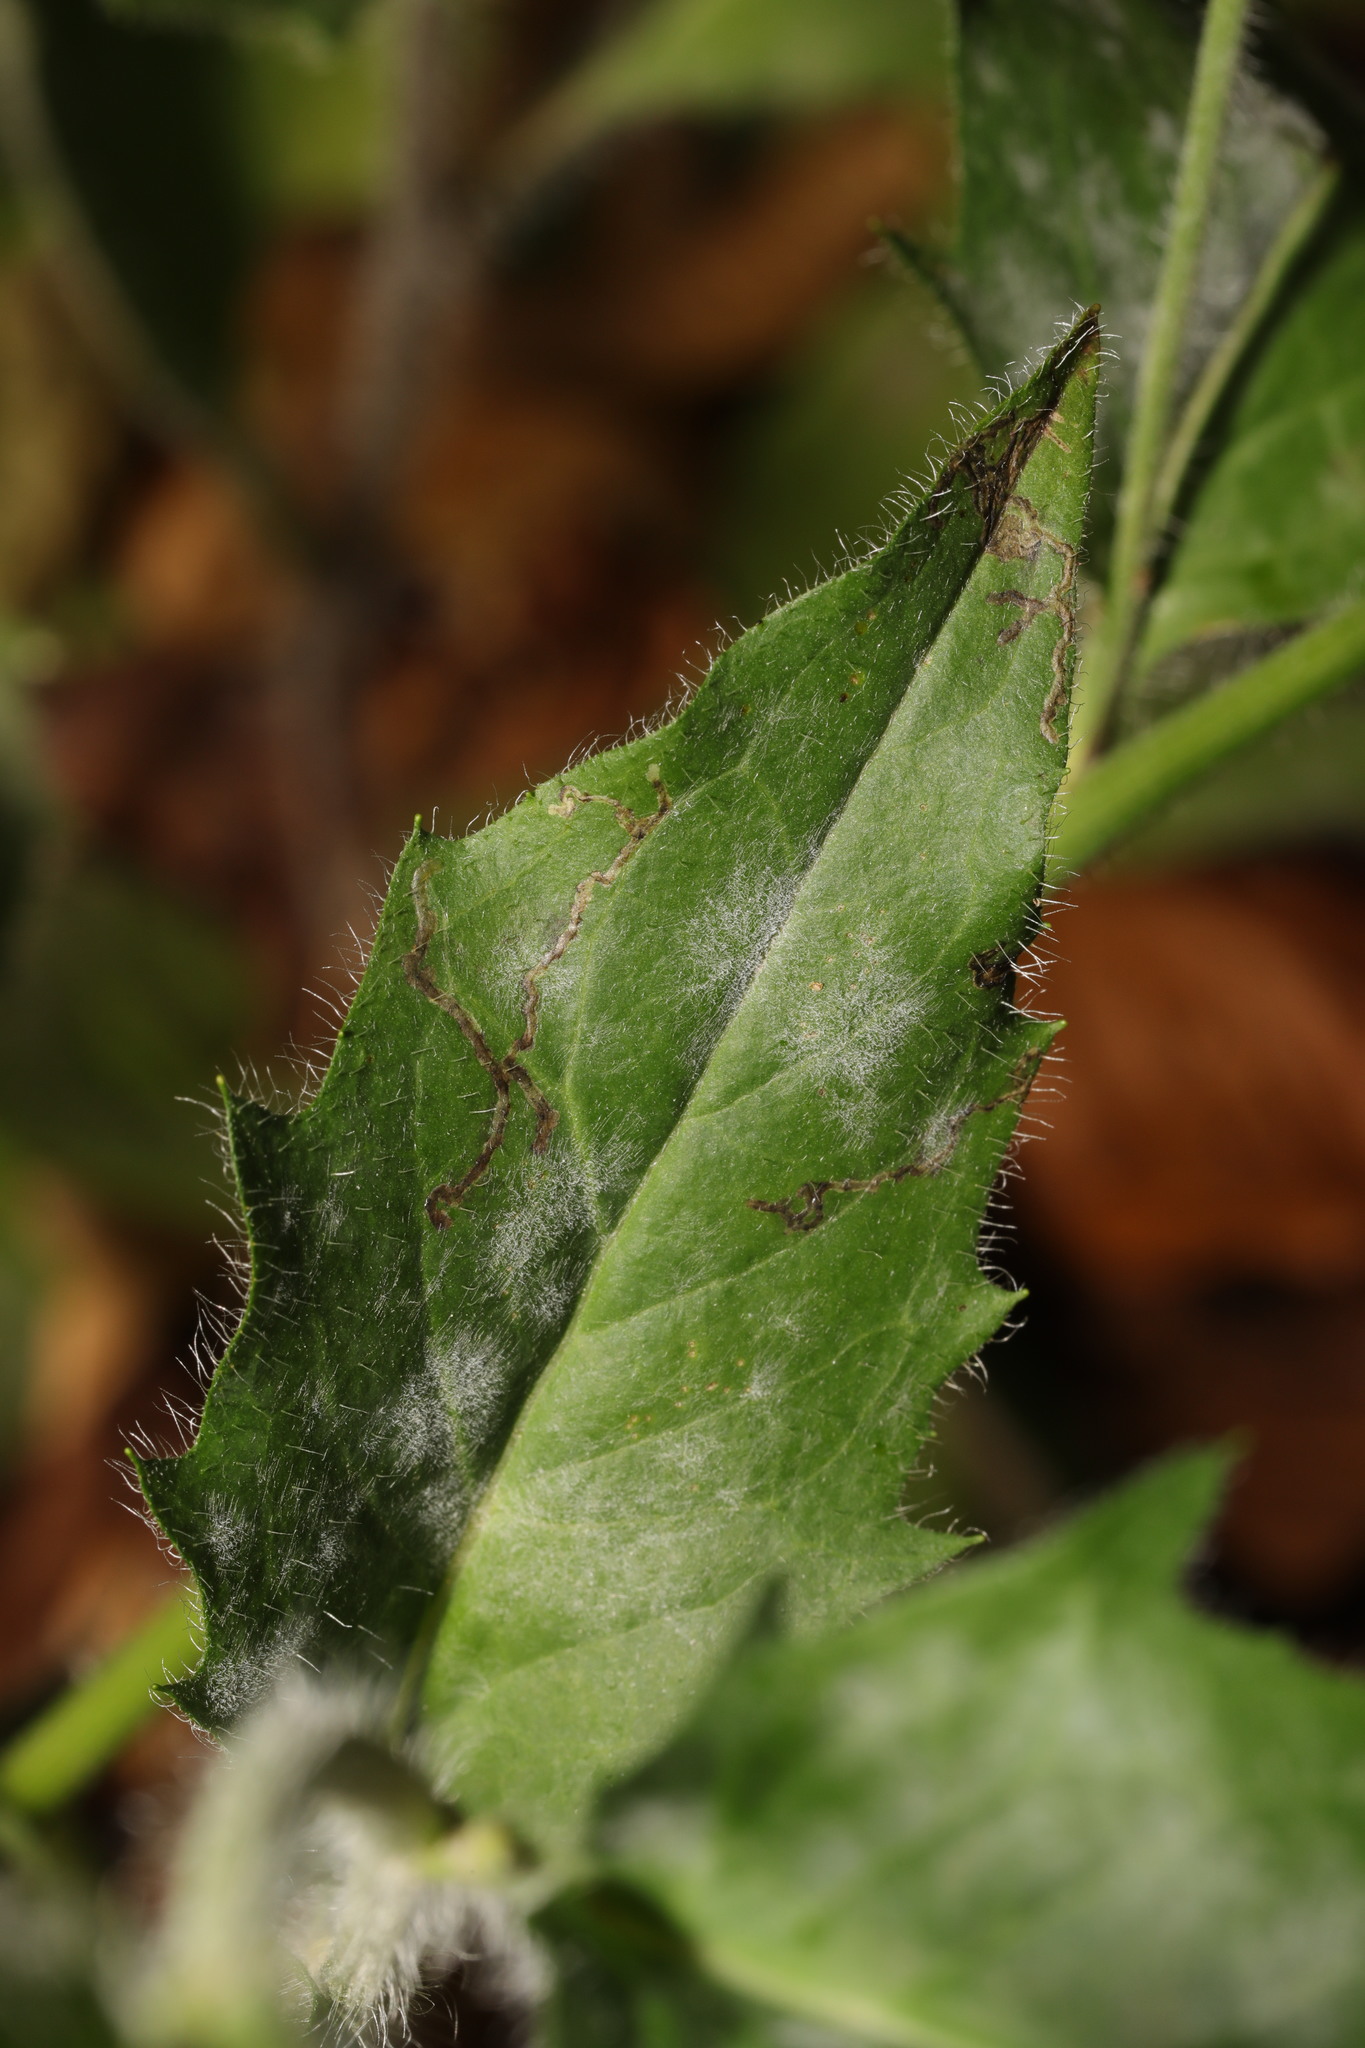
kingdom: Fungi
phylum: Ascomycota
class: Leotiomycetes
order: Helotiales
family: Erysiphaceae
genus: Golovinomyces
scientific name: Golovinomyces
